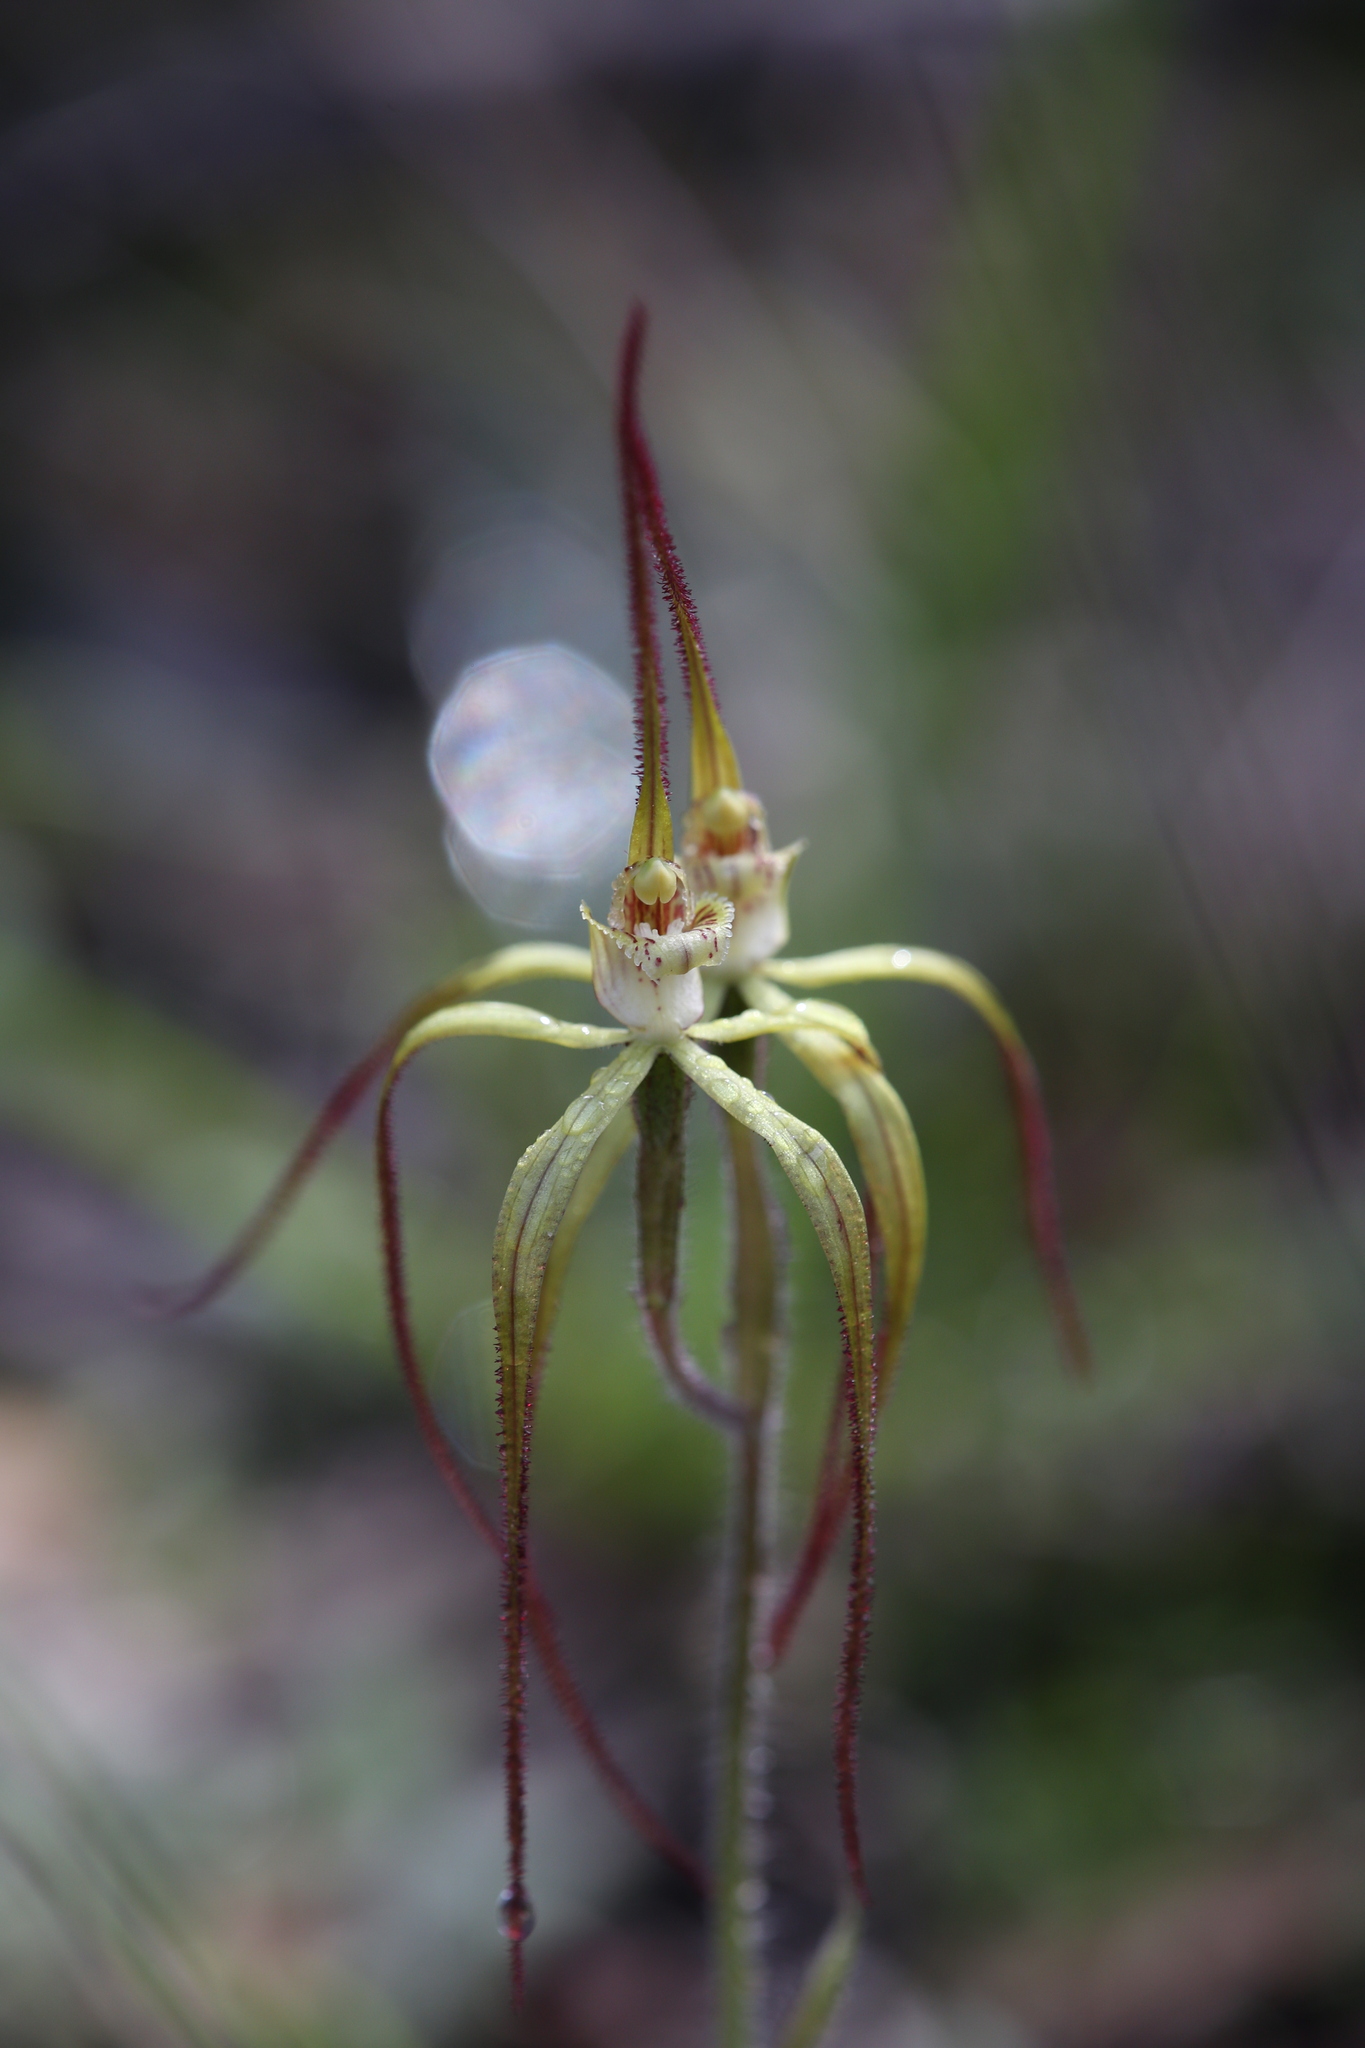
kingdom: Plantae
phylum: Tracheophyta
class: Liliopsida
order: Asparagales
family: Orchidaceae
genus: Caladenia
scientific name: Caladenia xantha
